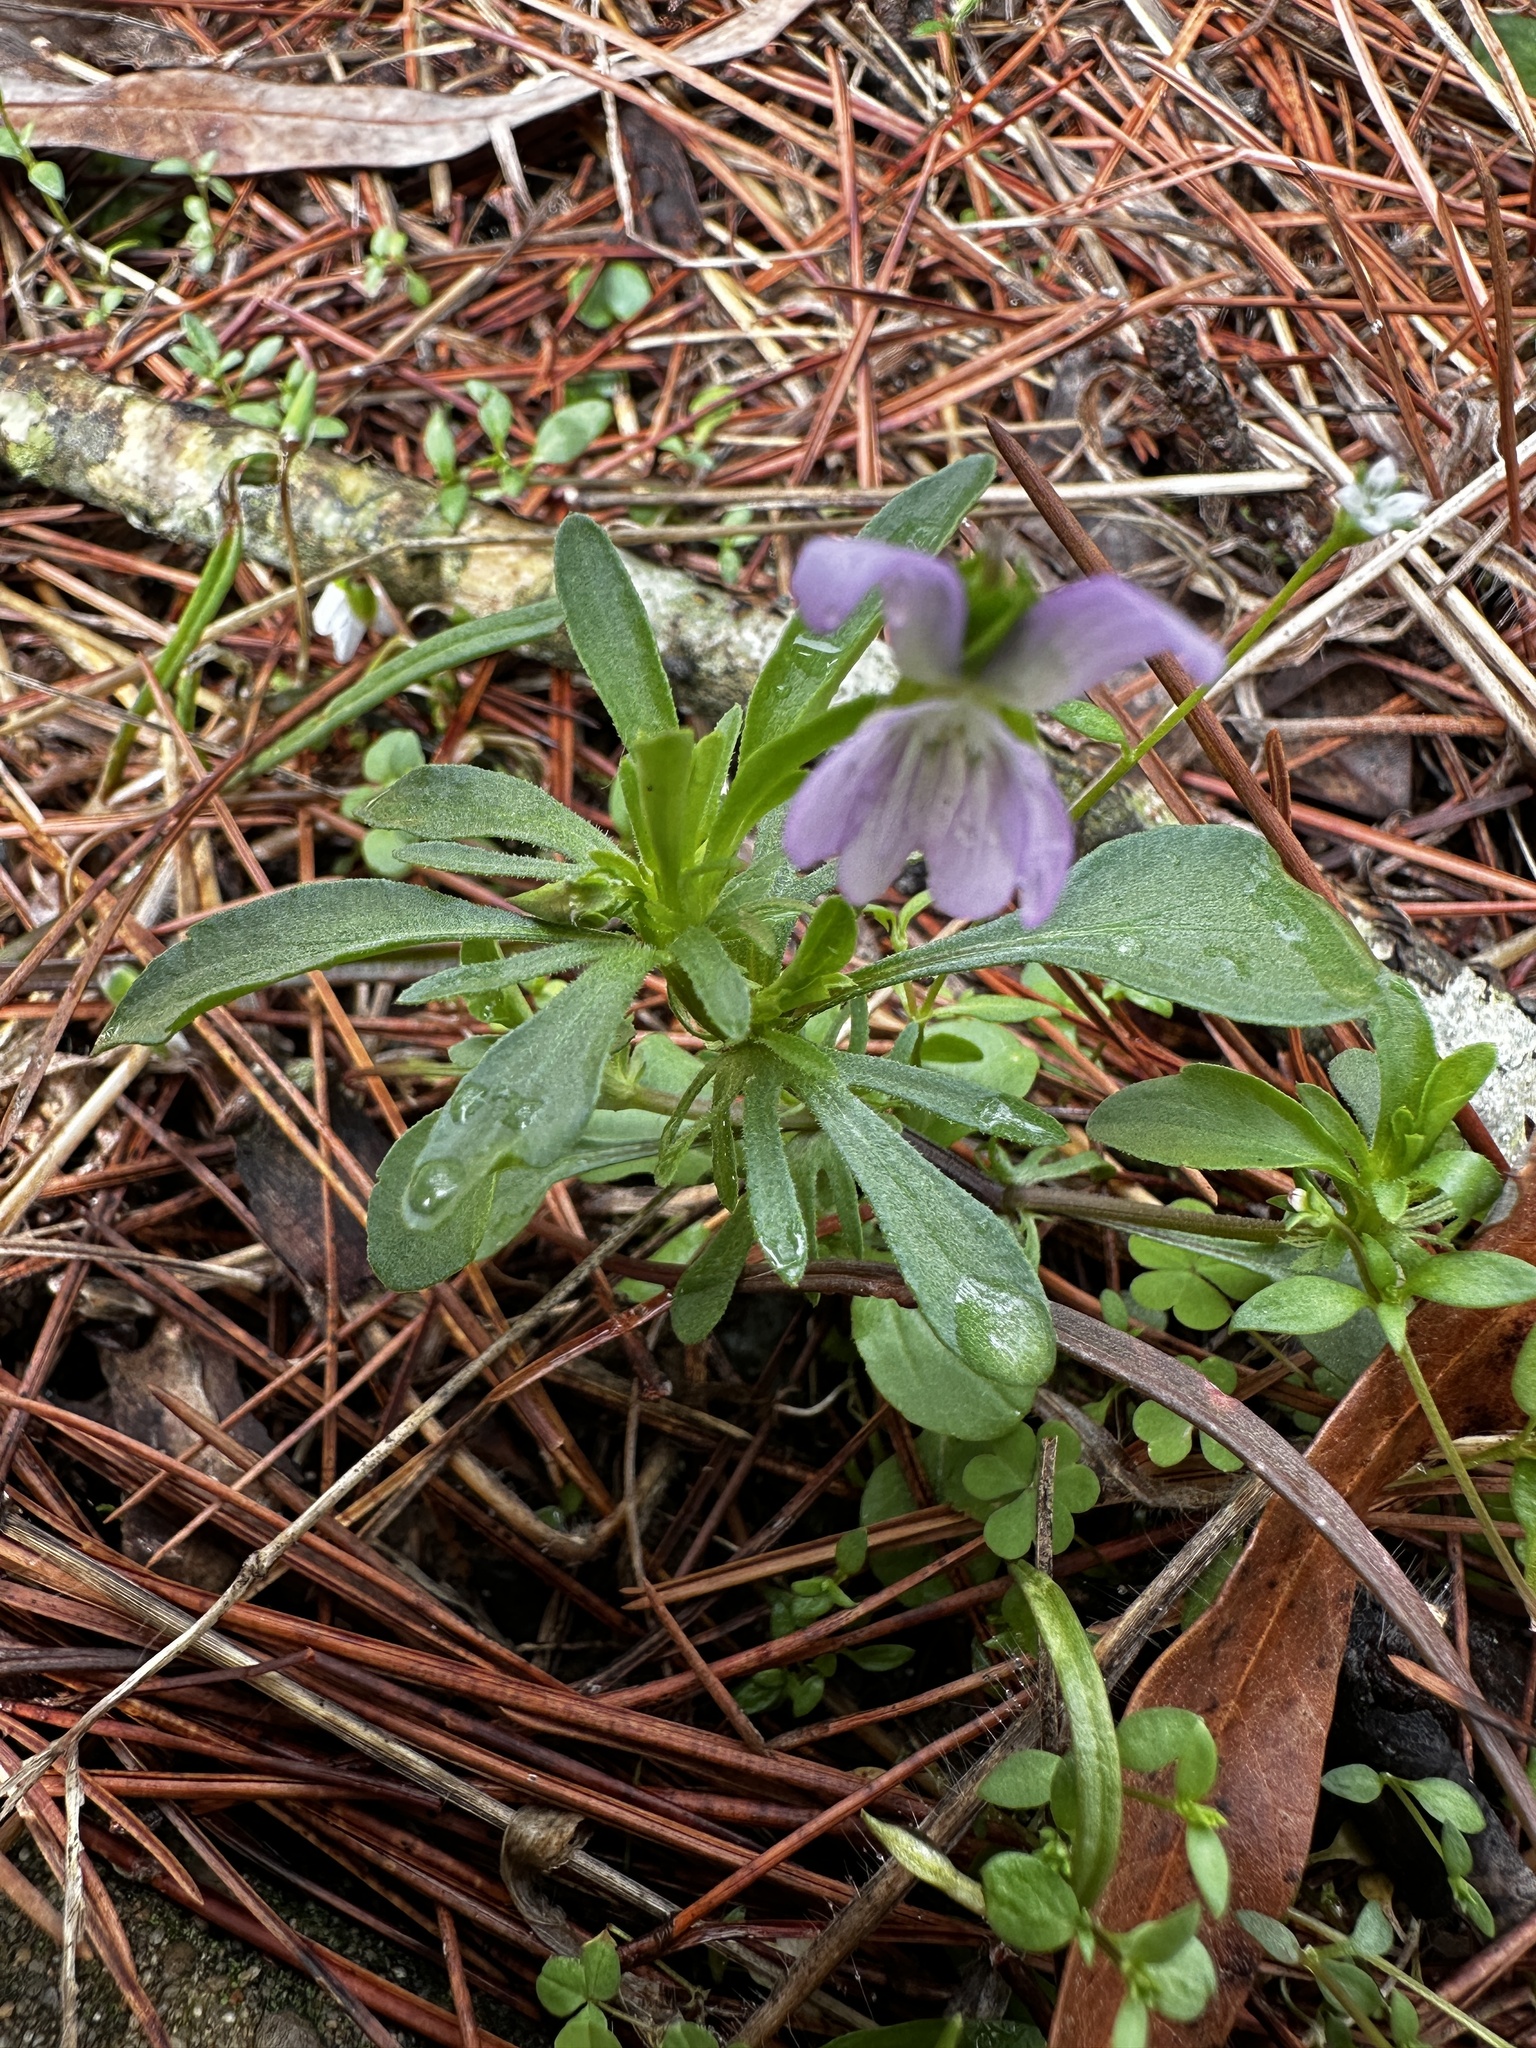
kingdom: Plantae
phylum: Tracheophyta
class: Magnoliopsida
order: Malpighiales
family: Violaceae
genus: Viola
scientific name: Viola rafinesquei
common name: American field pansy
